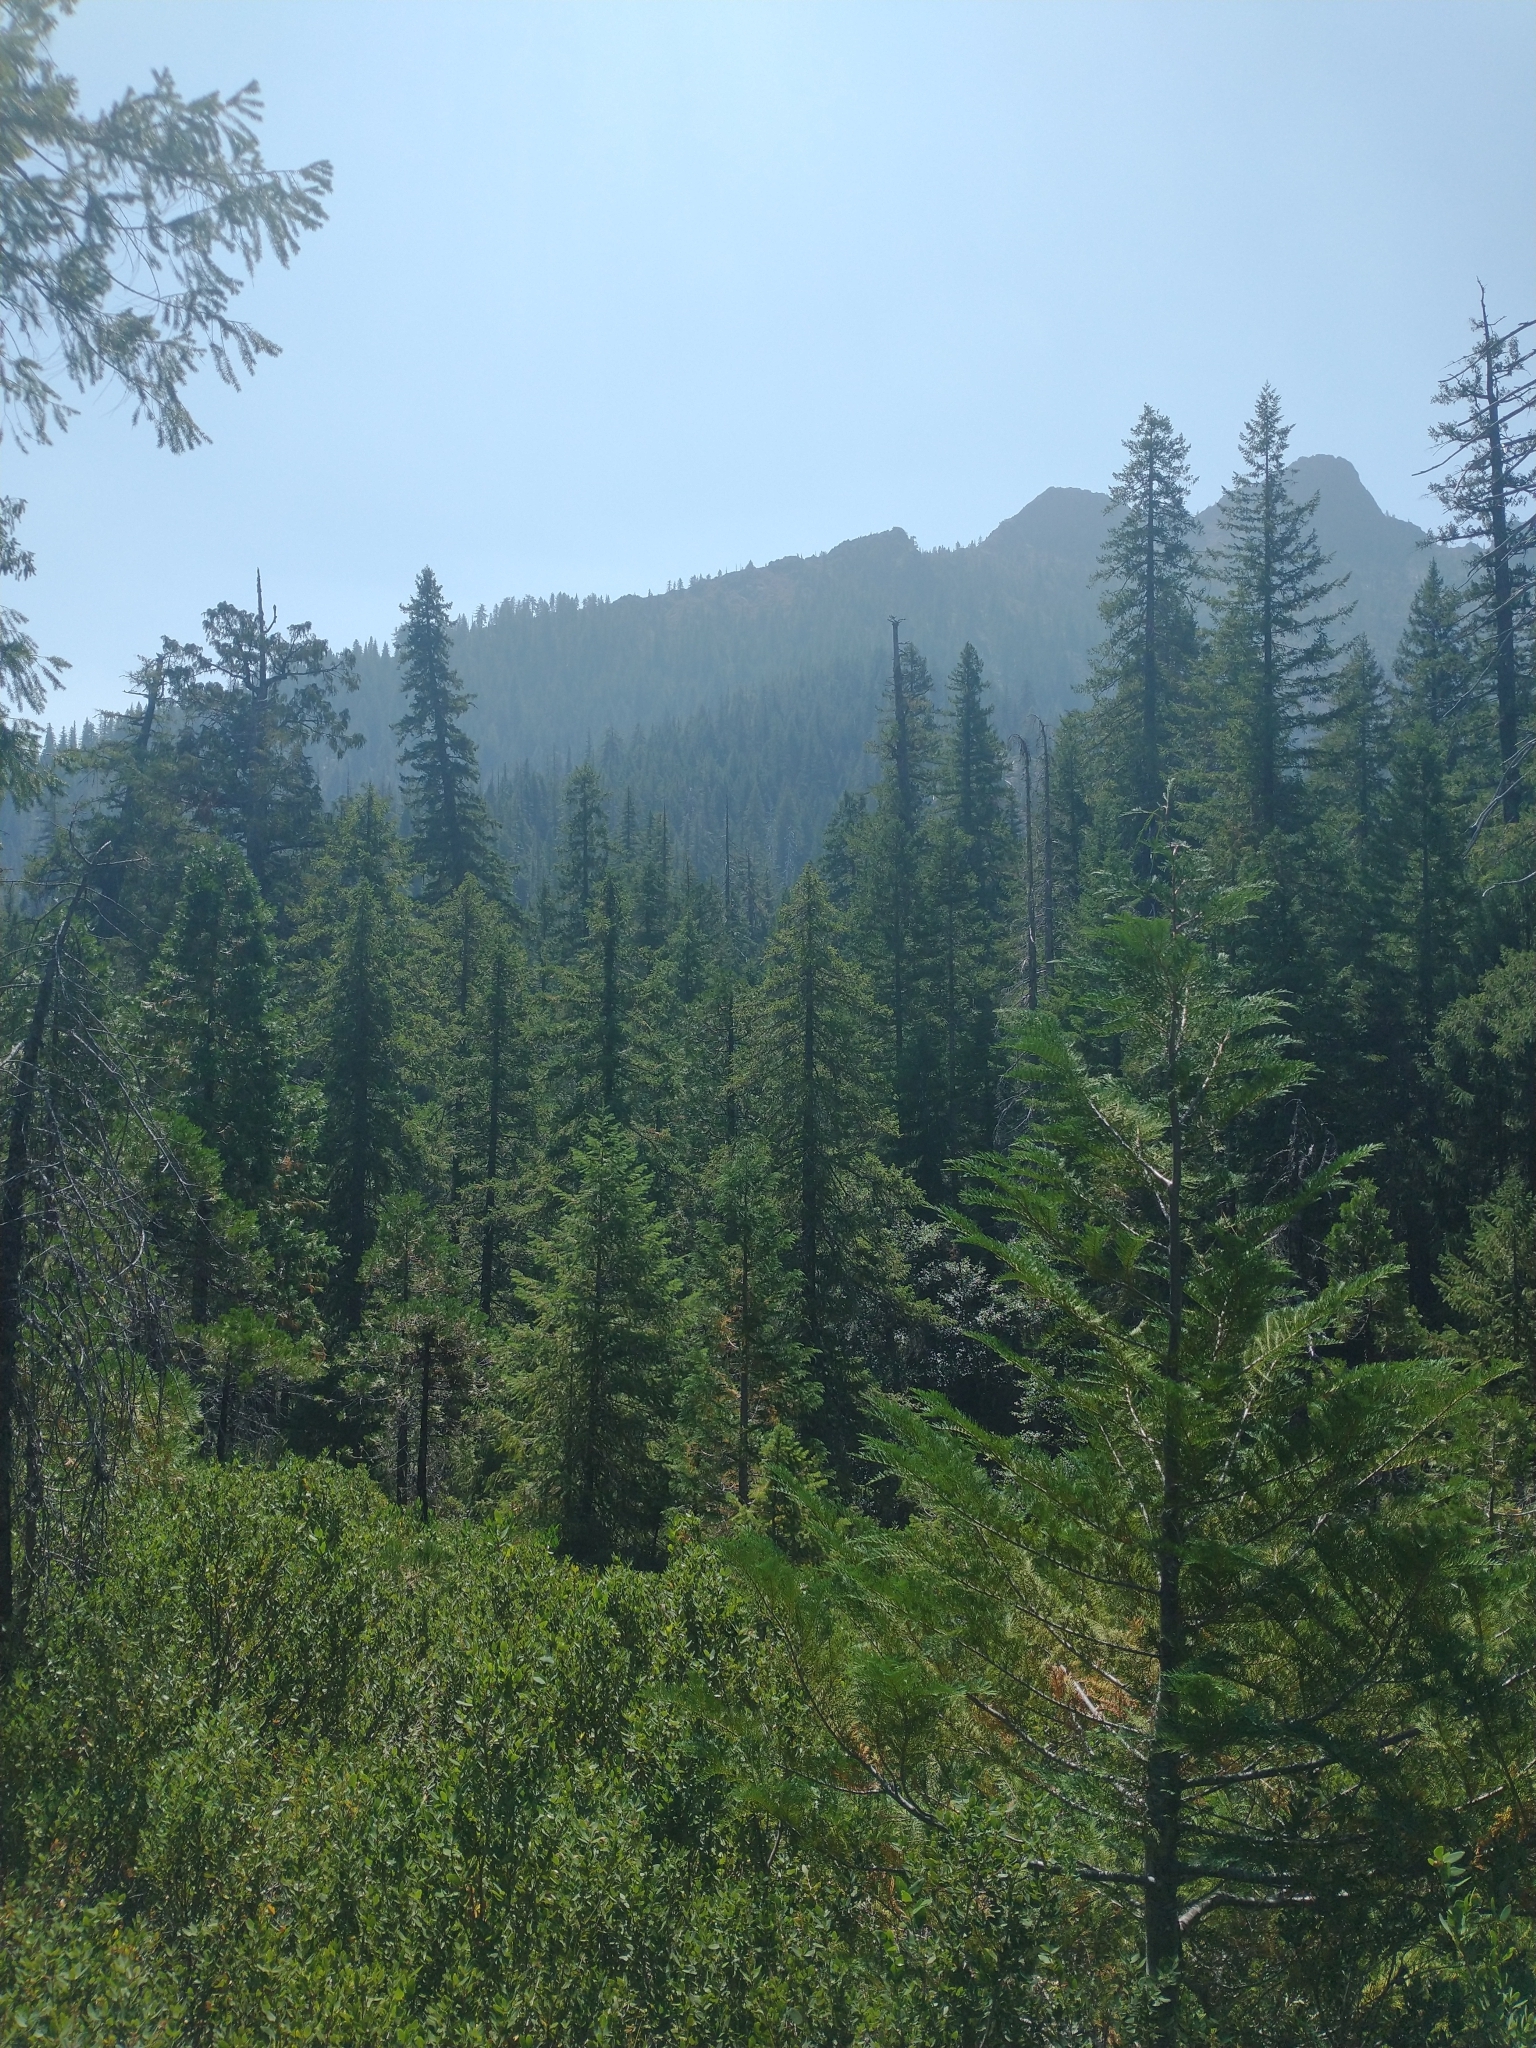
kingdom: Plantae
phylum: Tracheophyta
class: Pinopsida
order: Pinales
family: Cupressaceae
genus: Chamaecyparis
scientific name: Chamaecyparis lawsoniana
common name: Lawson's cypress
